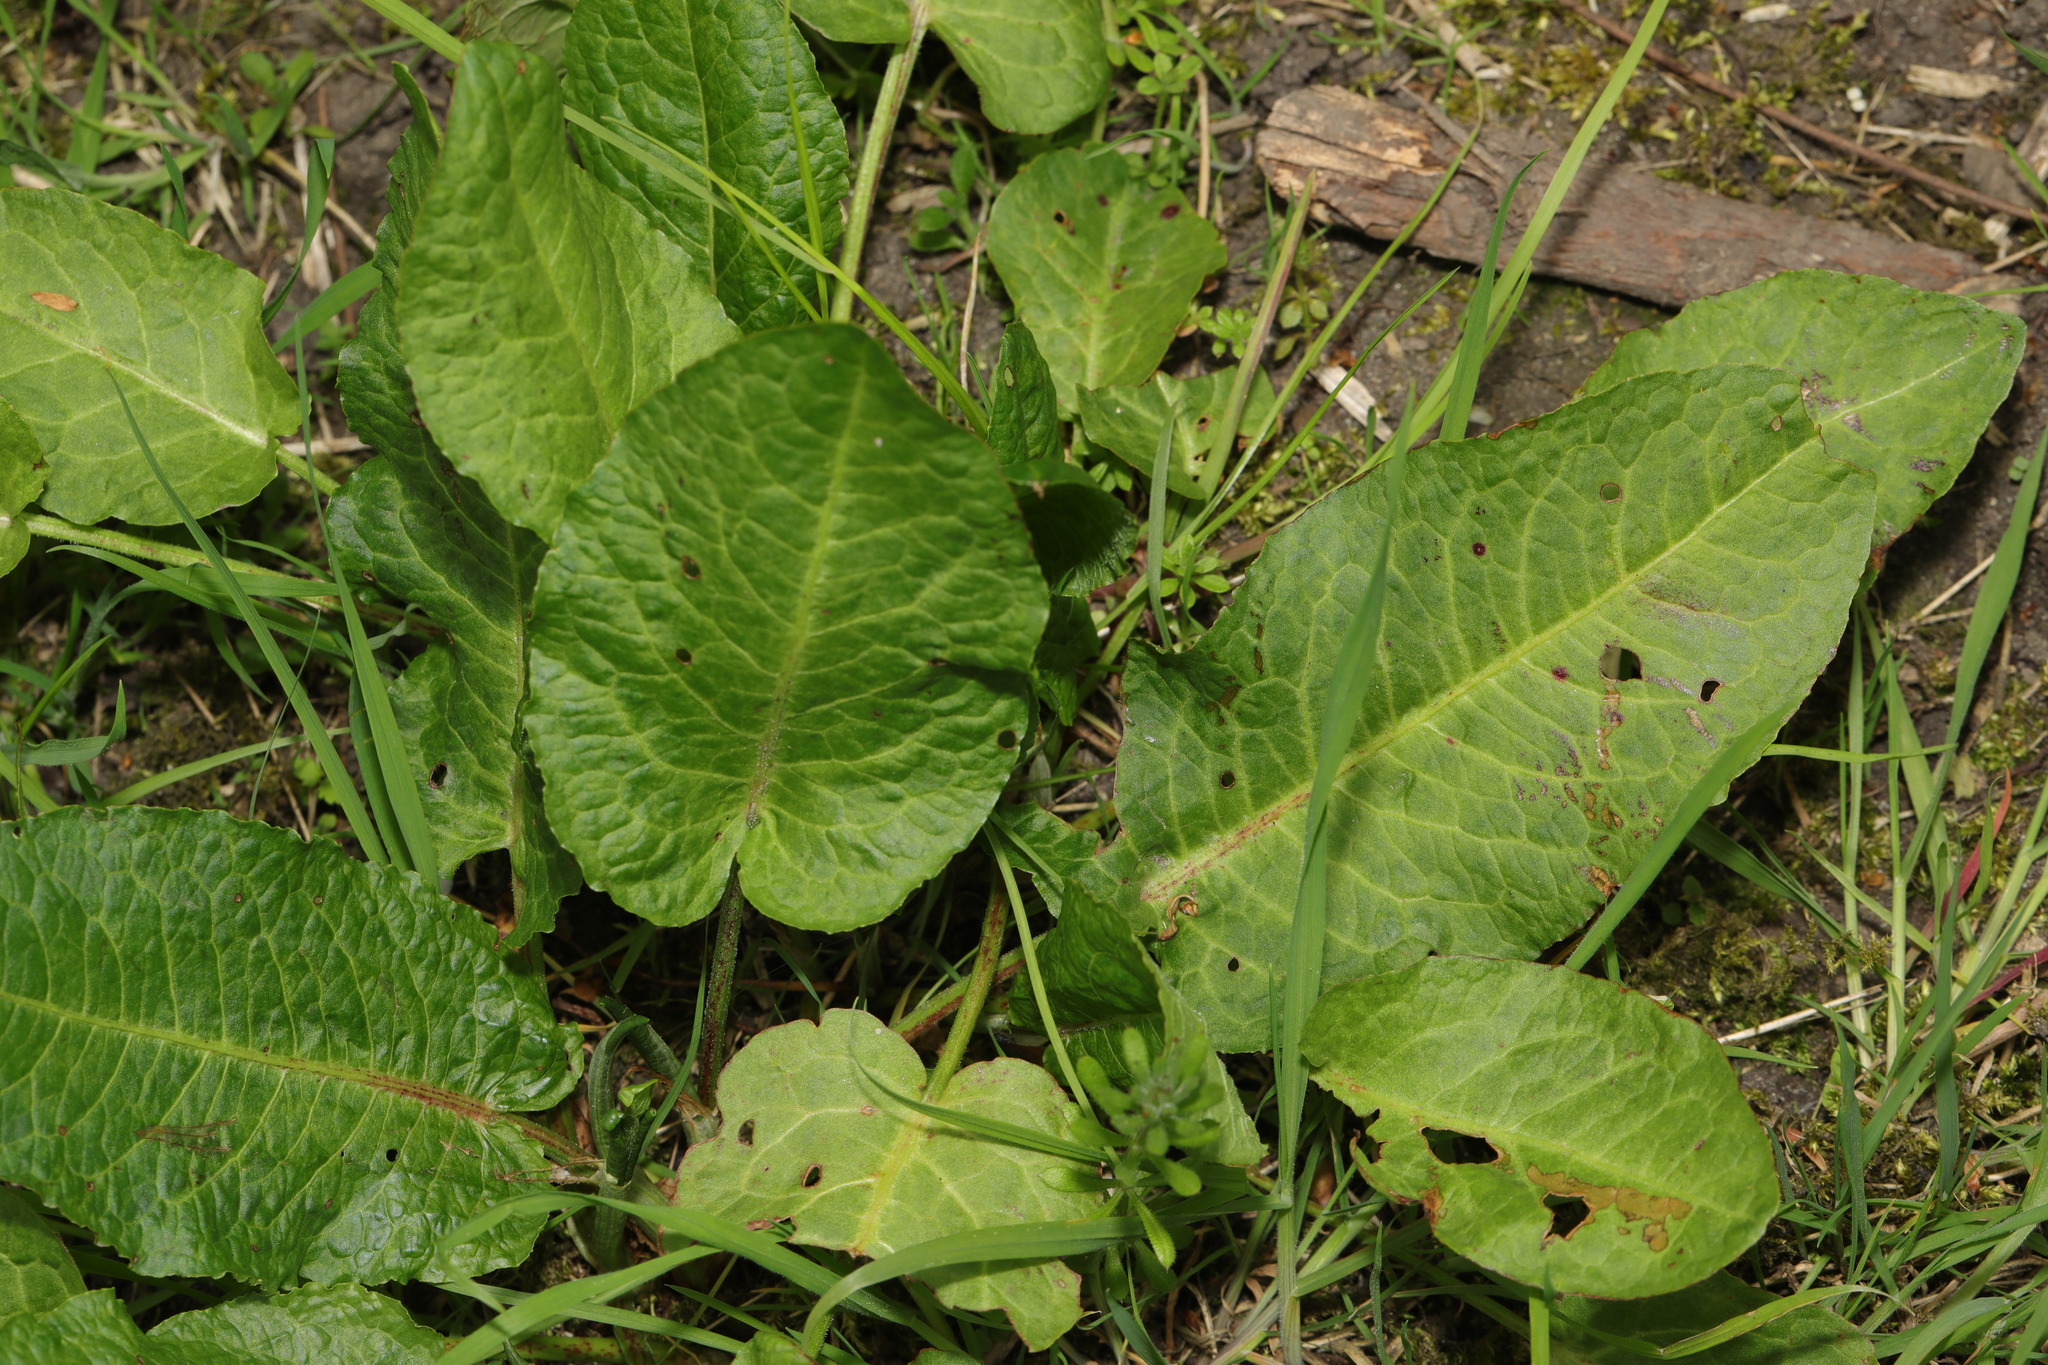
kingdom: Plantae
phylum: Tracheophyta
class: Magnoliopsida
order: Caryophyllales
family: Polygonaceae
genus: Rumex
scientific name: Rumex obtusifolius
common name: Bitter dock
